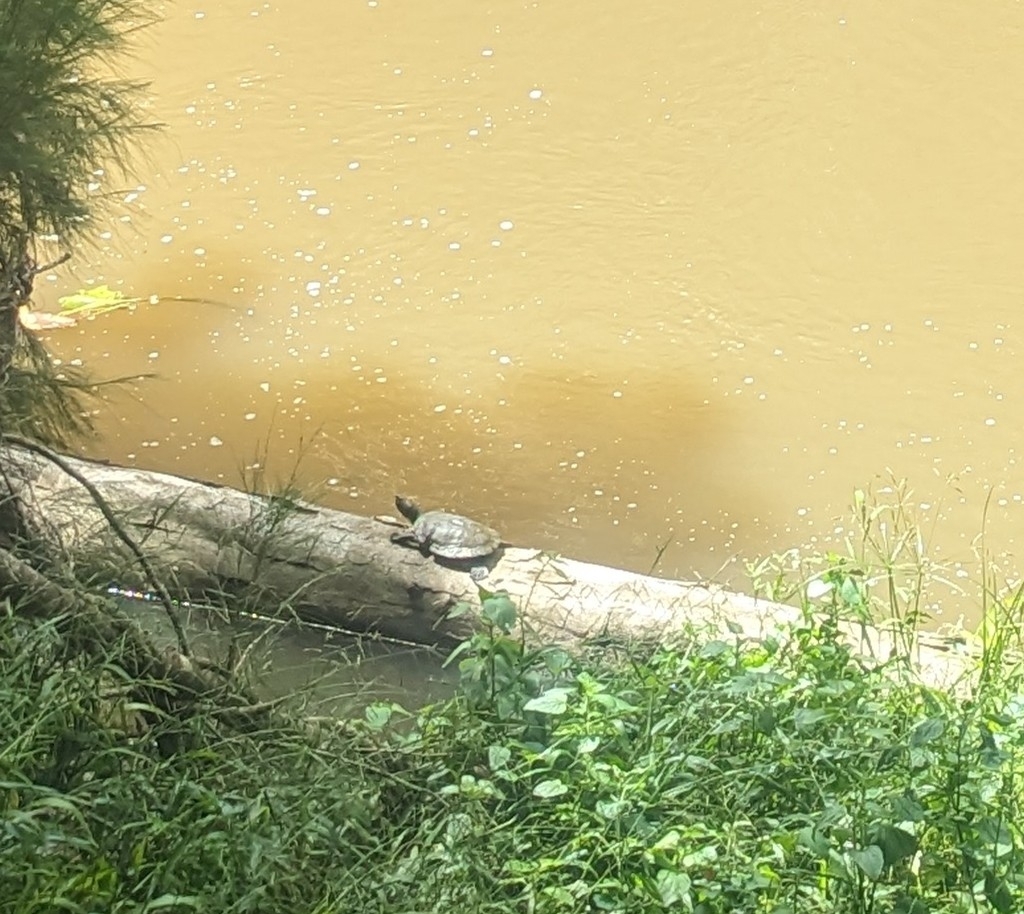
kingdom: Animalia
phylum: Chordata
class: Testudines
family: Chelidae
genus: Myuchelys
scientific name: Myuchelys latisternum
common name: Serrated snapping turtle
